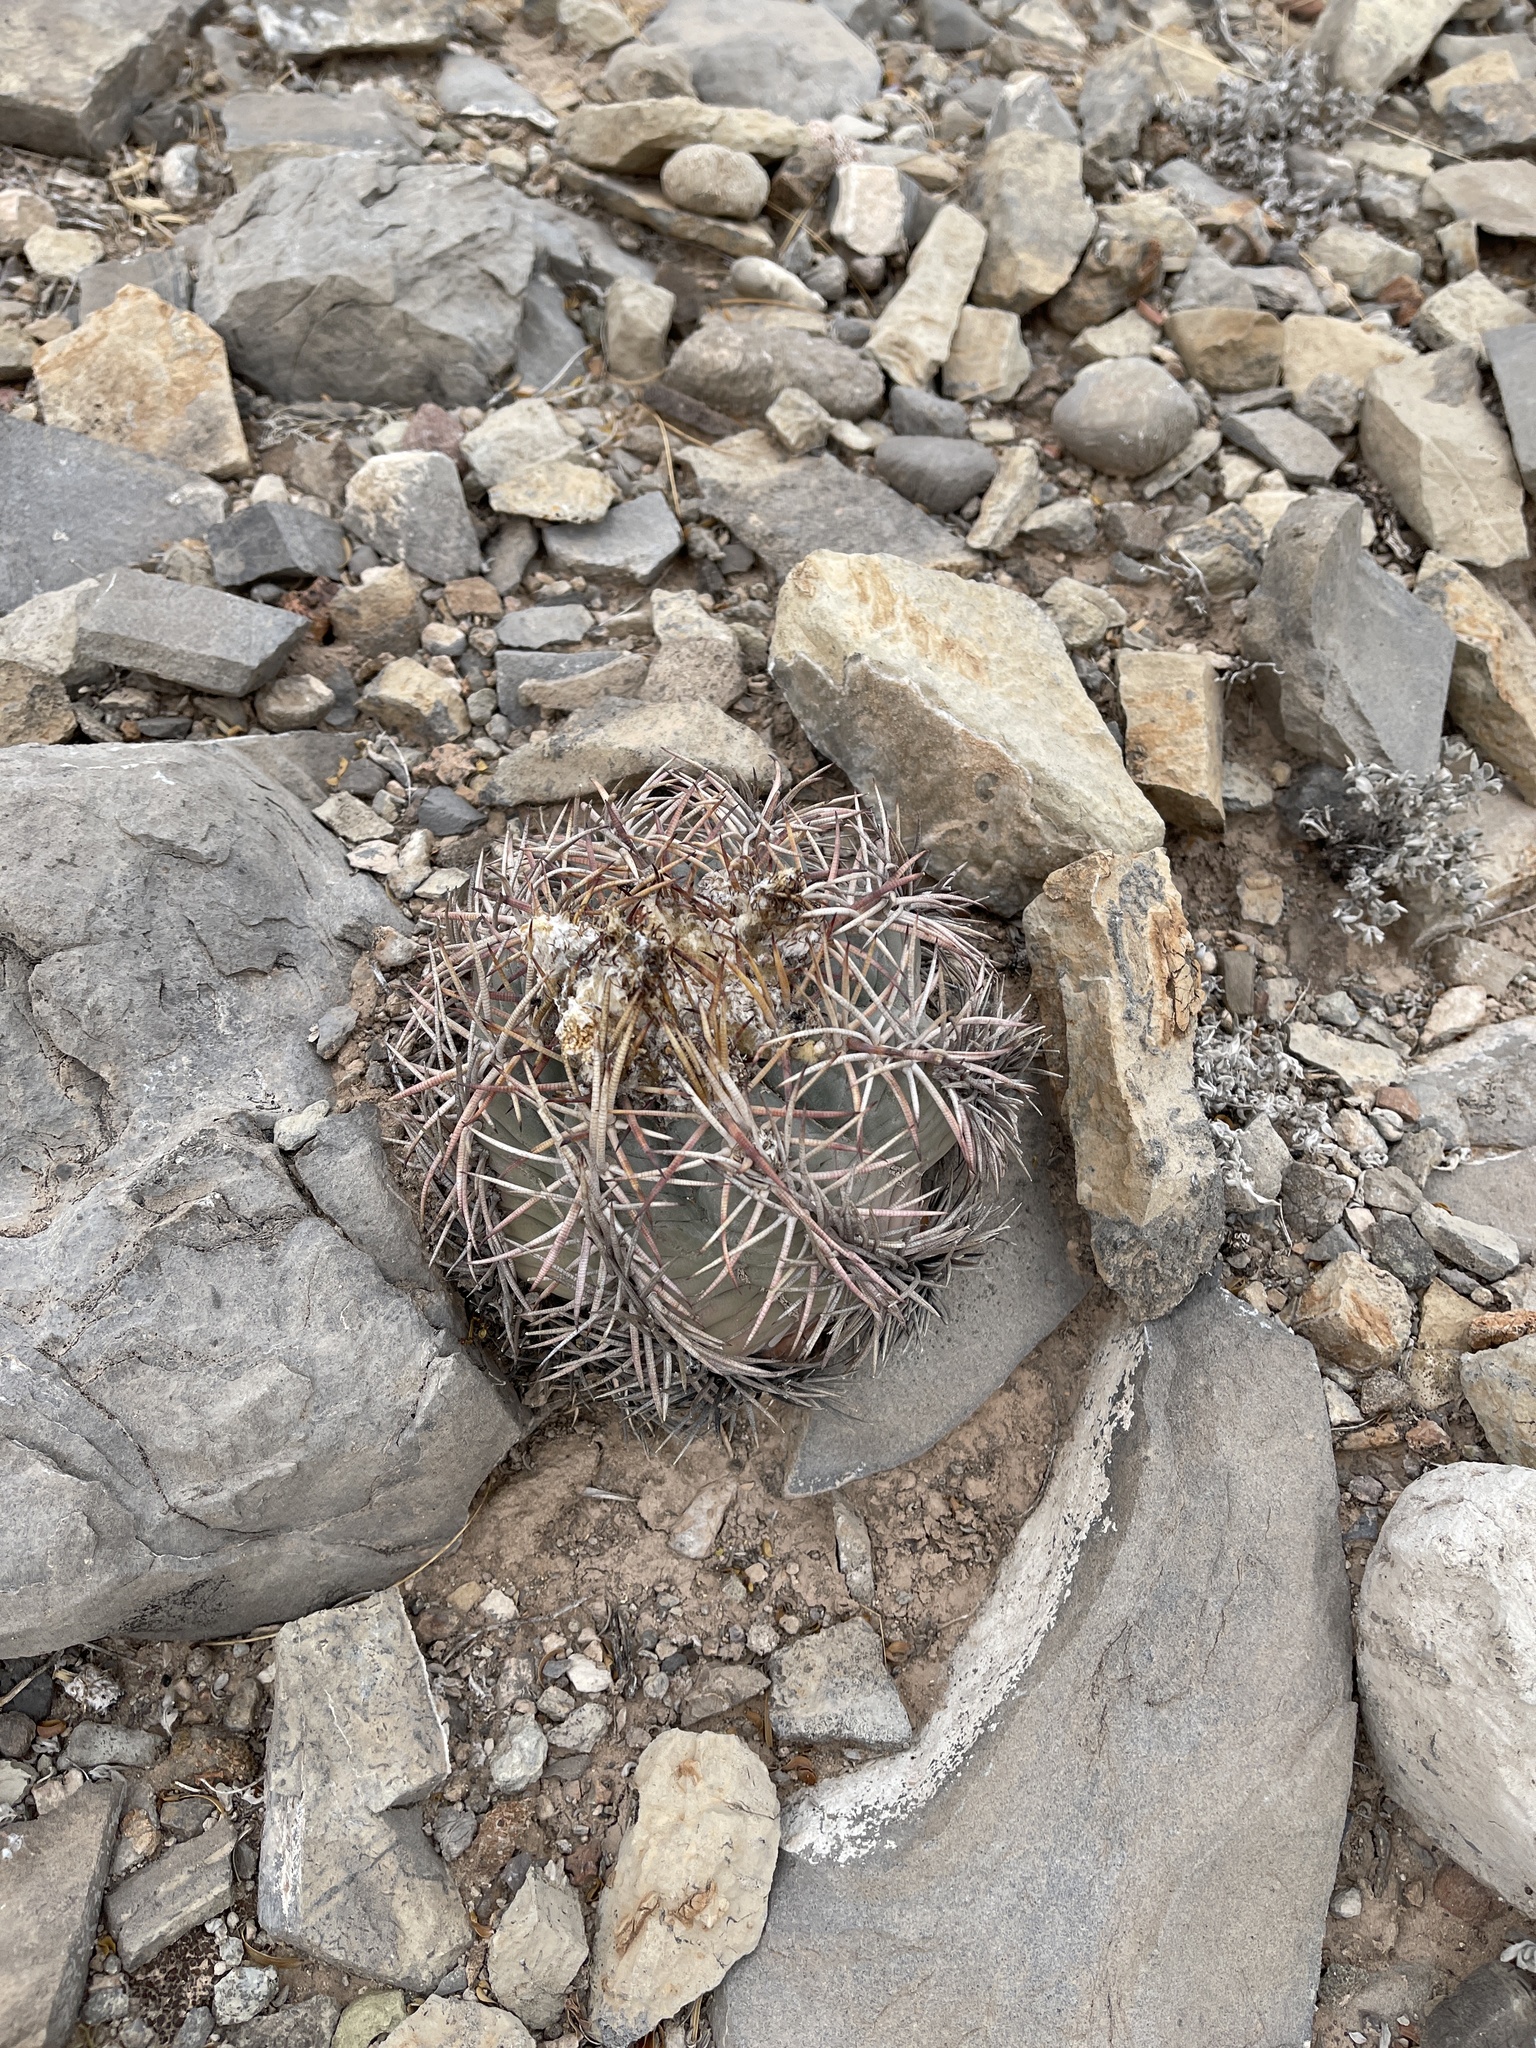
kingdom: Plantae
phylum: Tracheophyta
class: Magnoliopsida
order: Caryophyllales
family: Cactaceae
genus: Echinocactus
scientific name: Echinocactus horizonthalonius
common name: Devilshead
